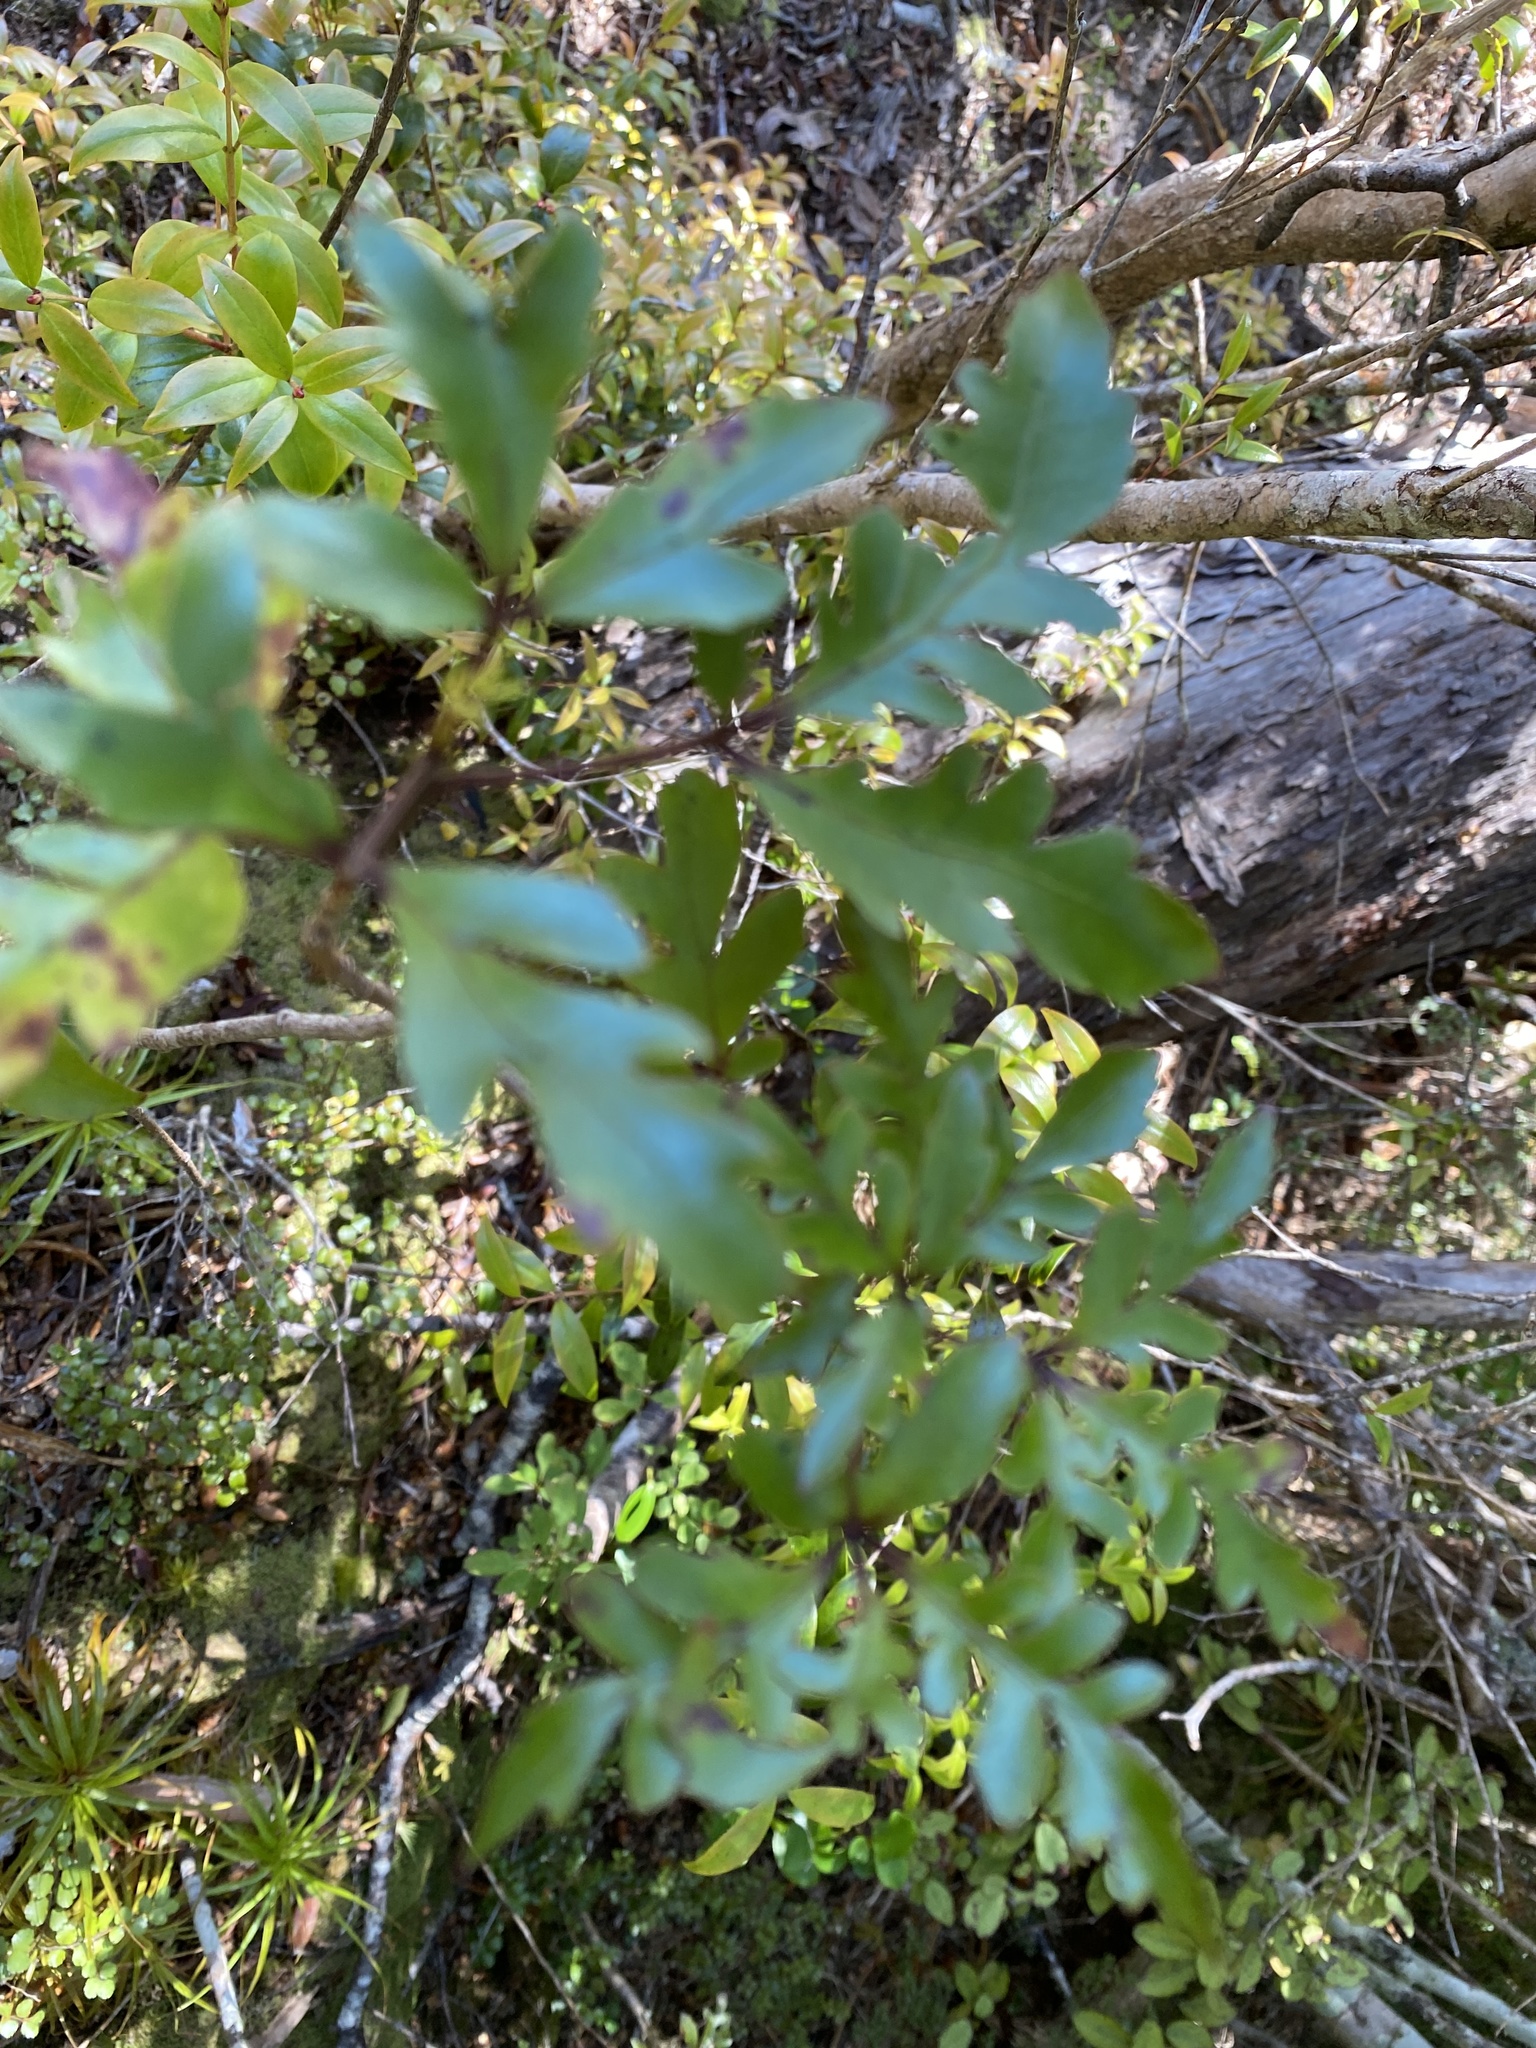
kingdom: Plantae
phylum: Tracheophyta
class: Magnoliopsida
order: Apiales
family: Araliaceae
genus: Raukaua
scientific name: Raukaua simplex
